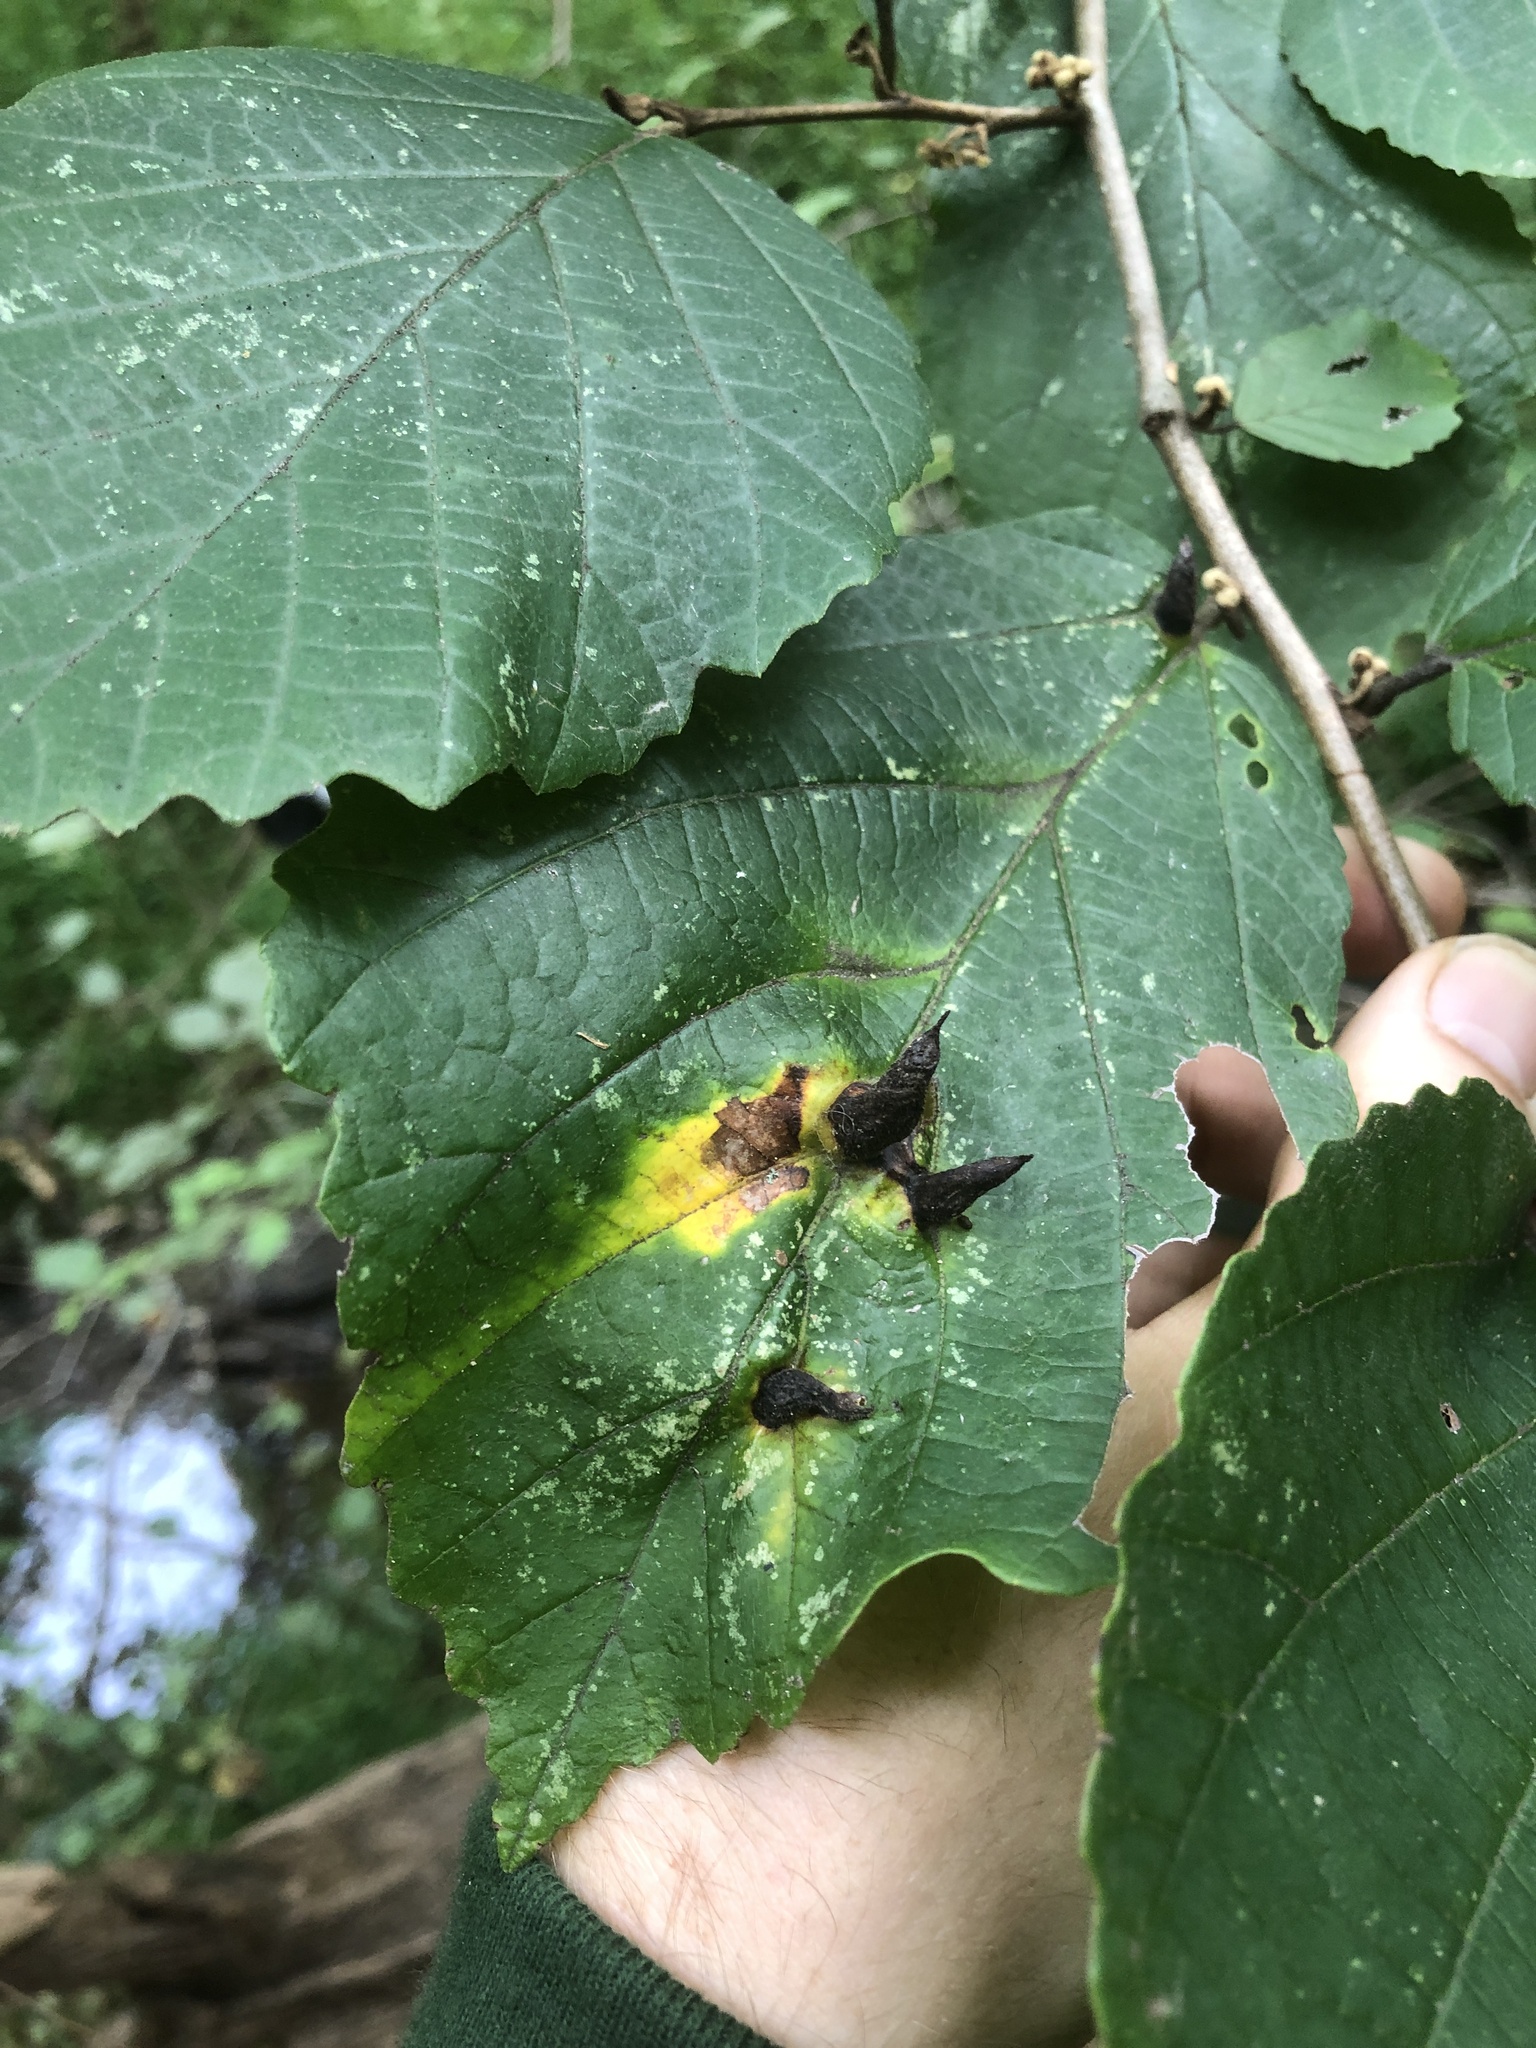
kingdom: Animalia
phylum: Arthropoda
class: Insecta
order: Hemiptera
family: Aphididae
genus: Hormaphis
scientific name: Hormaphis hamamelidis
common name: Witch-hazel cone gall aphid
